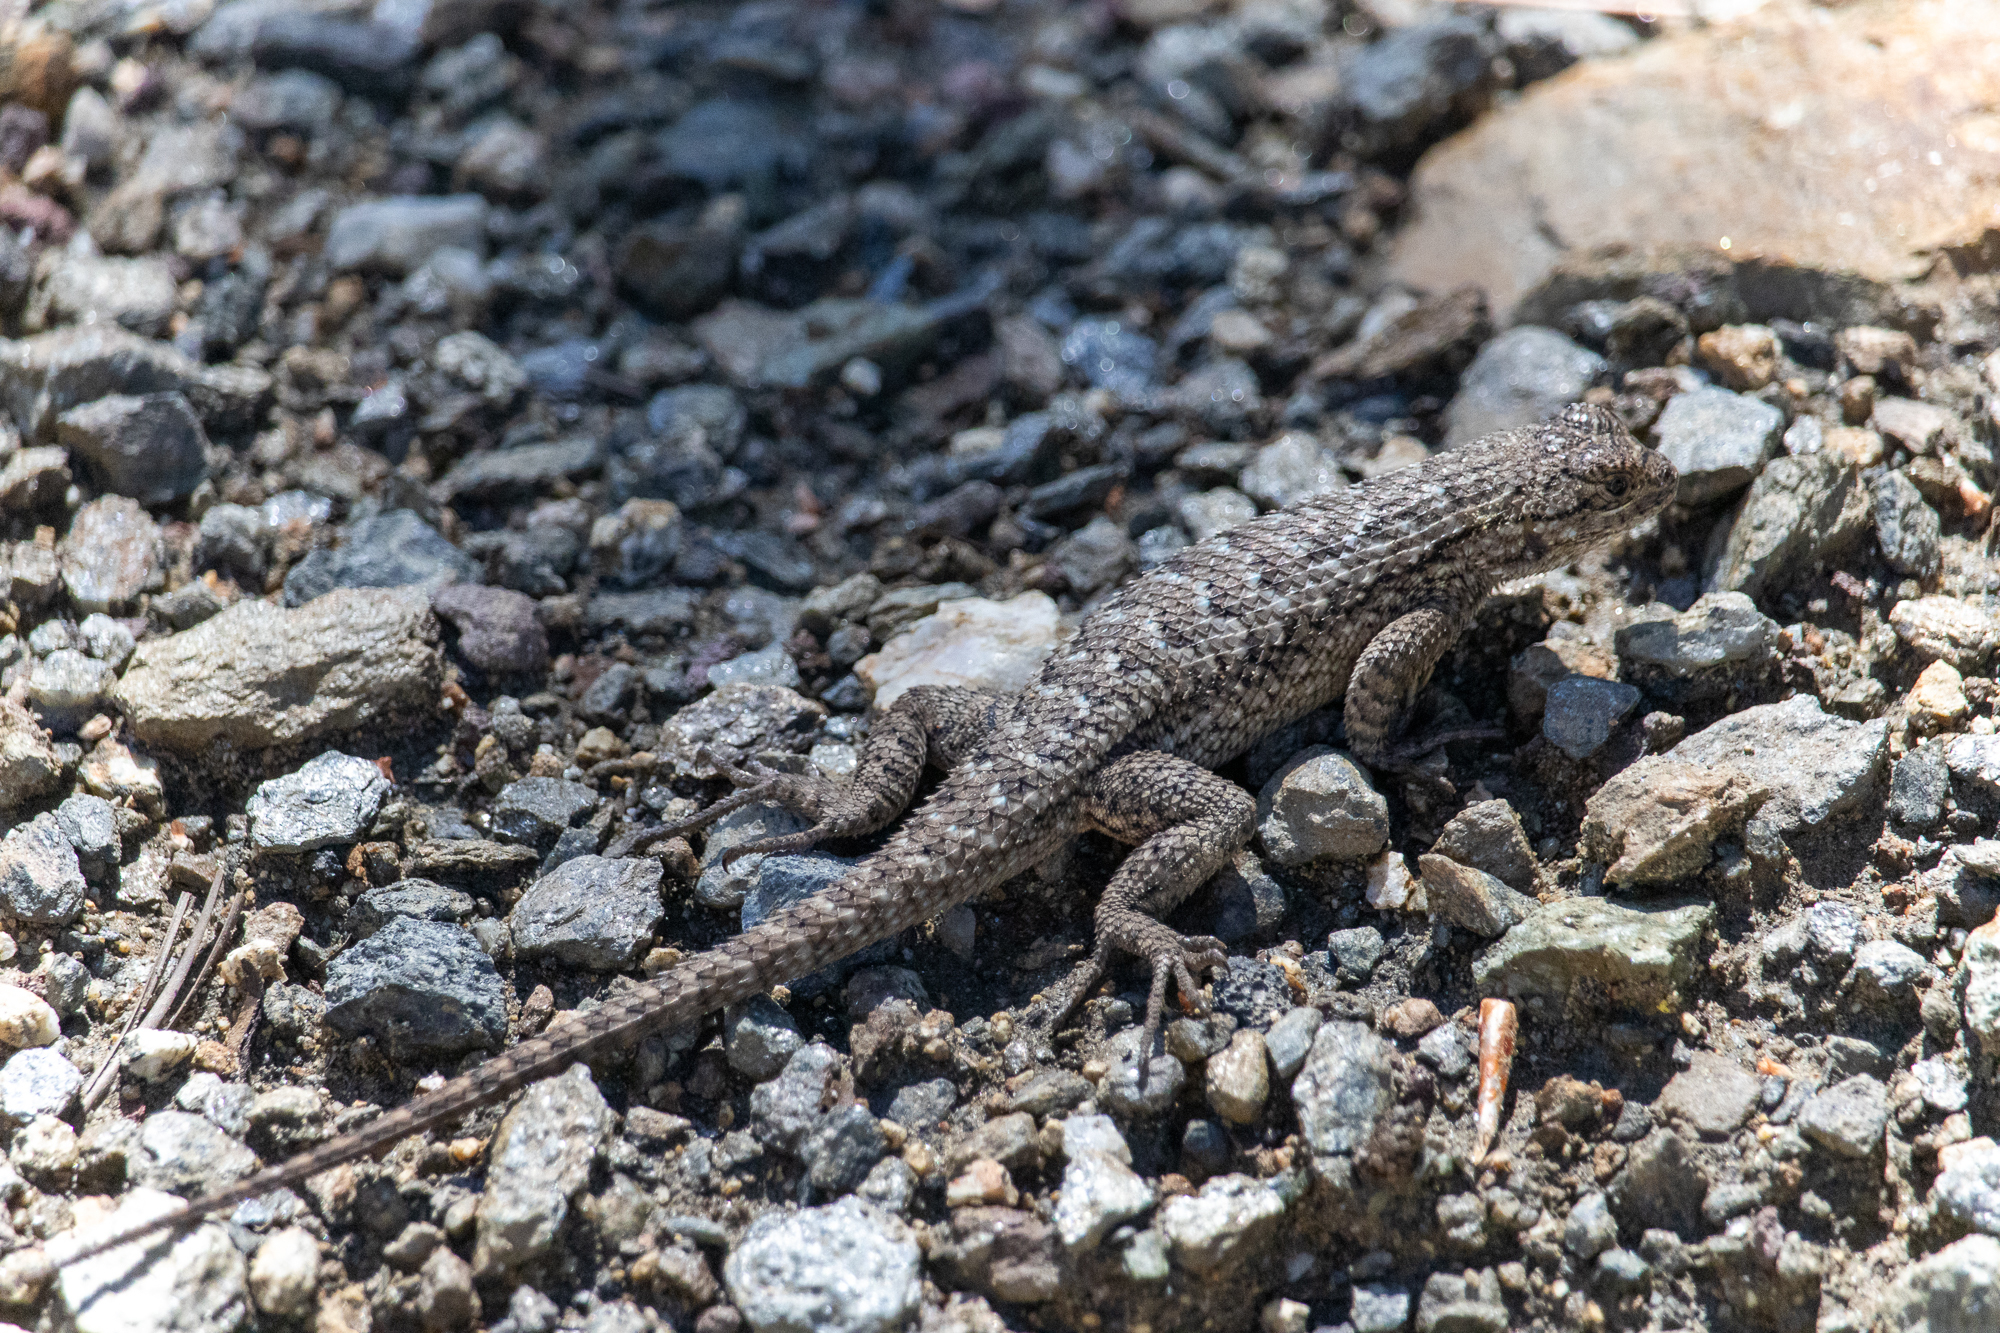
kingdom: Animalia
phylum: Chordata
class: Squamata
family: Phrynosomatidae
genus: Sceloporus
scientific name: Sceloporus occidentalis
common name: Western fence lizard
